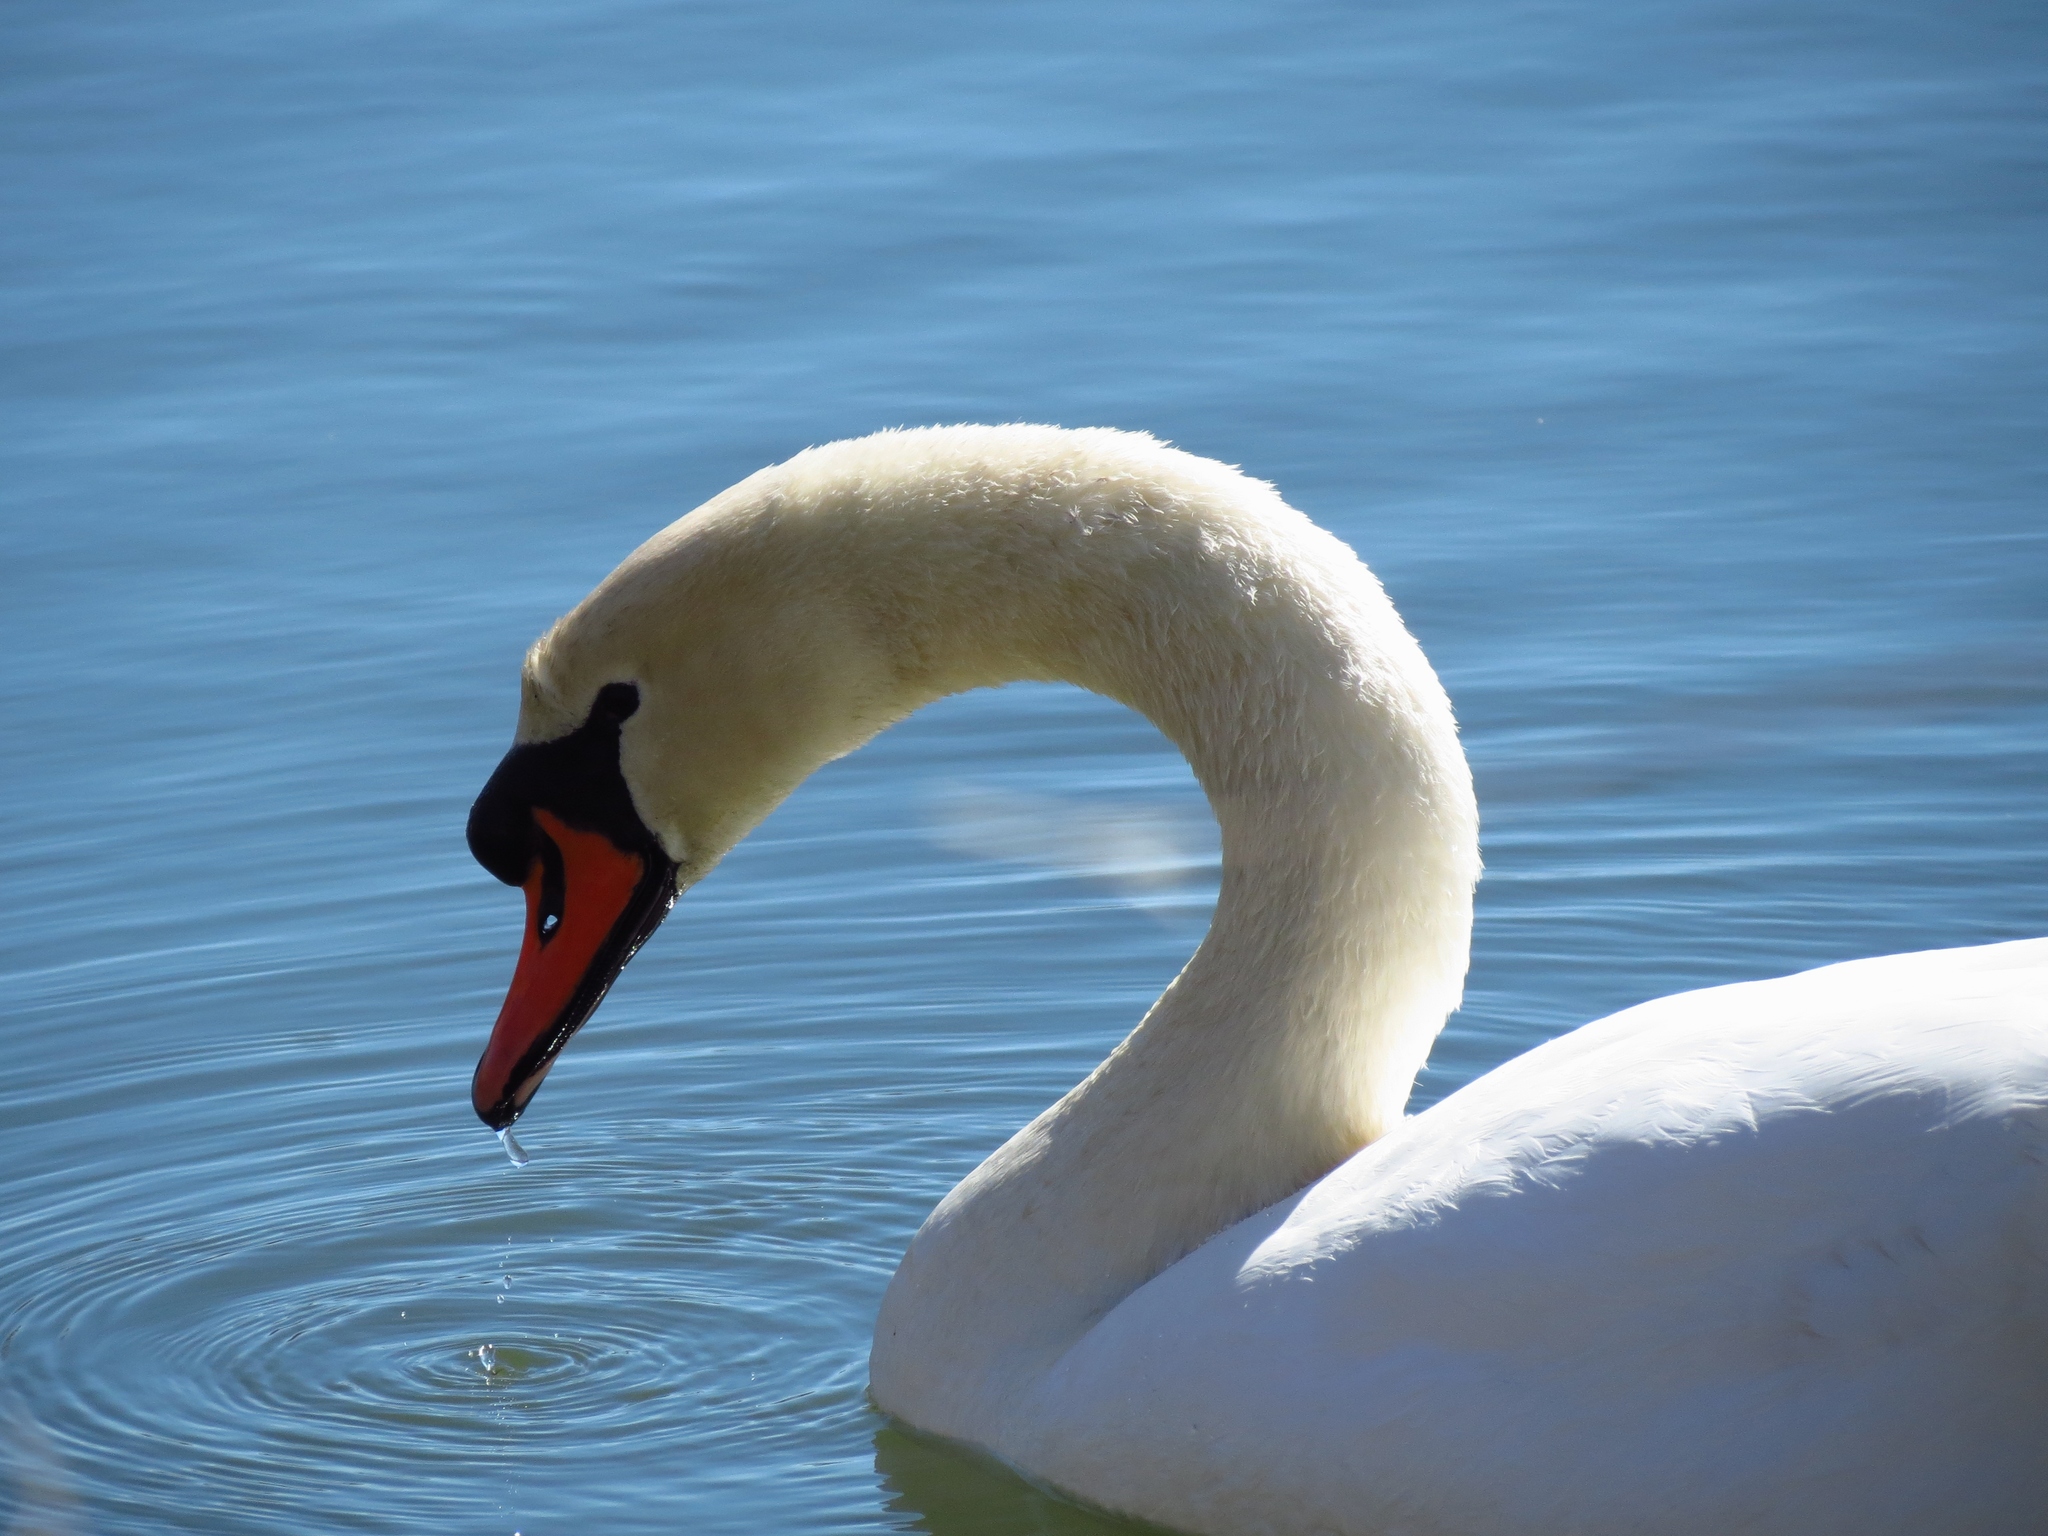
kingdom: Animalia
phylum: Chordata
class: Aves
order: Anseriformes
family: Anatidae
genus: Cygnus
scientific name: Cygnus olor
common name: Mute swan
